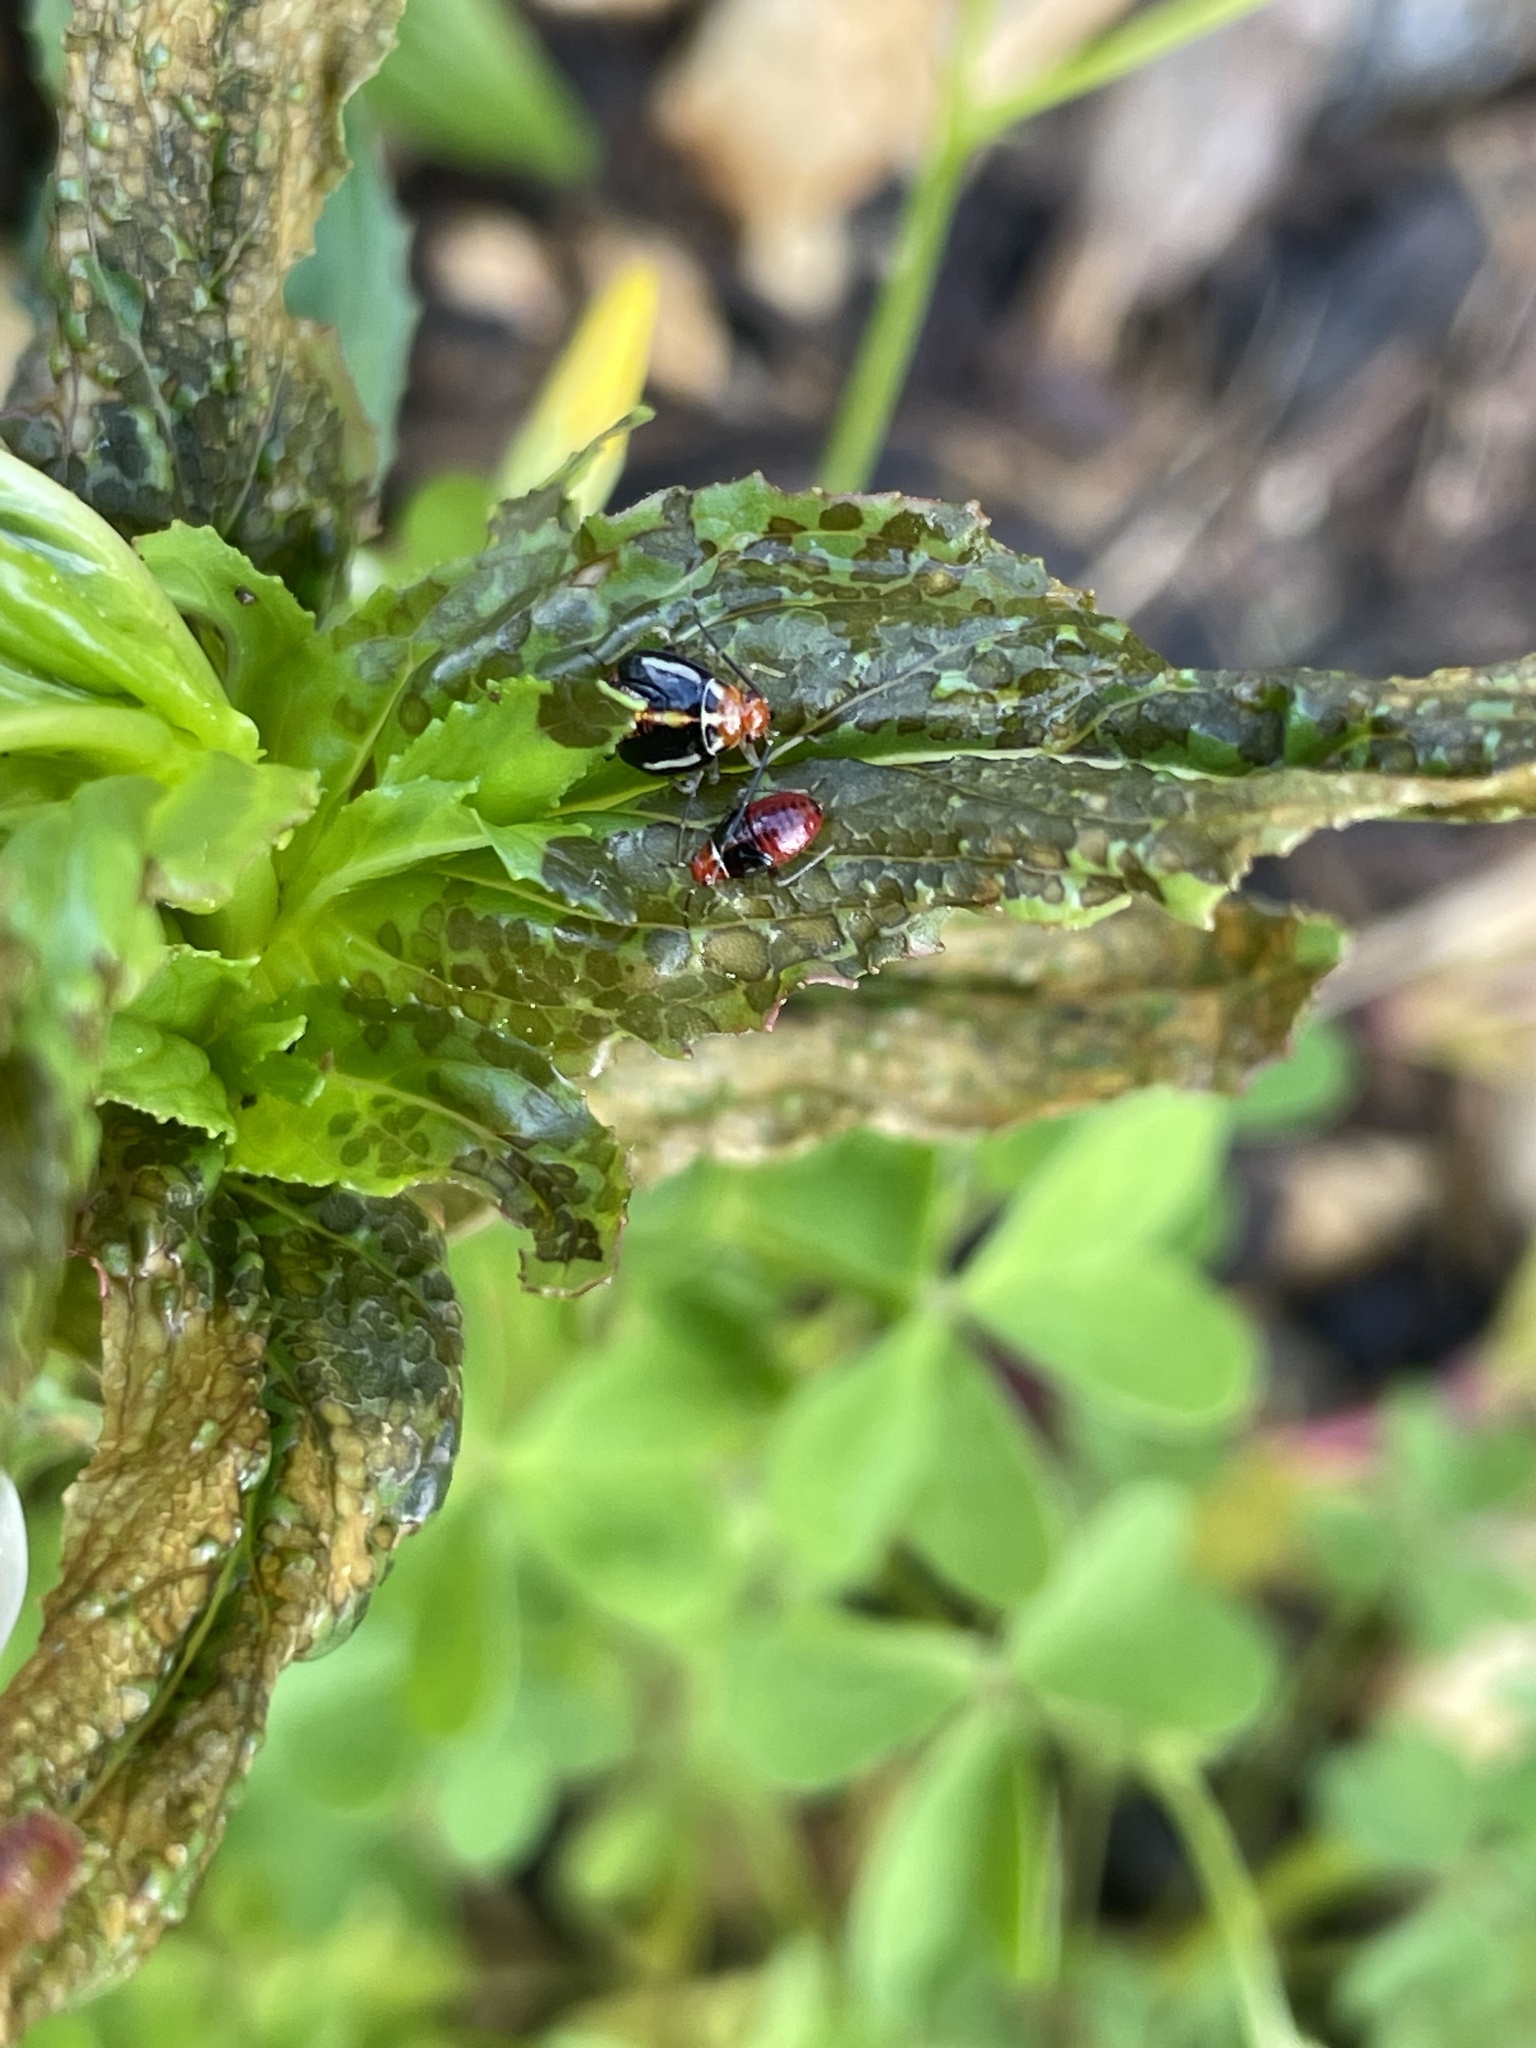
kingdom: Animalia
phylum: Arthropoda
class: Insecta
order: Hemiptera
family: Miridae
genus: Poecilocapsus
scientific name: Poecilocapsus lineatus
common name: Four-lined plant bug
